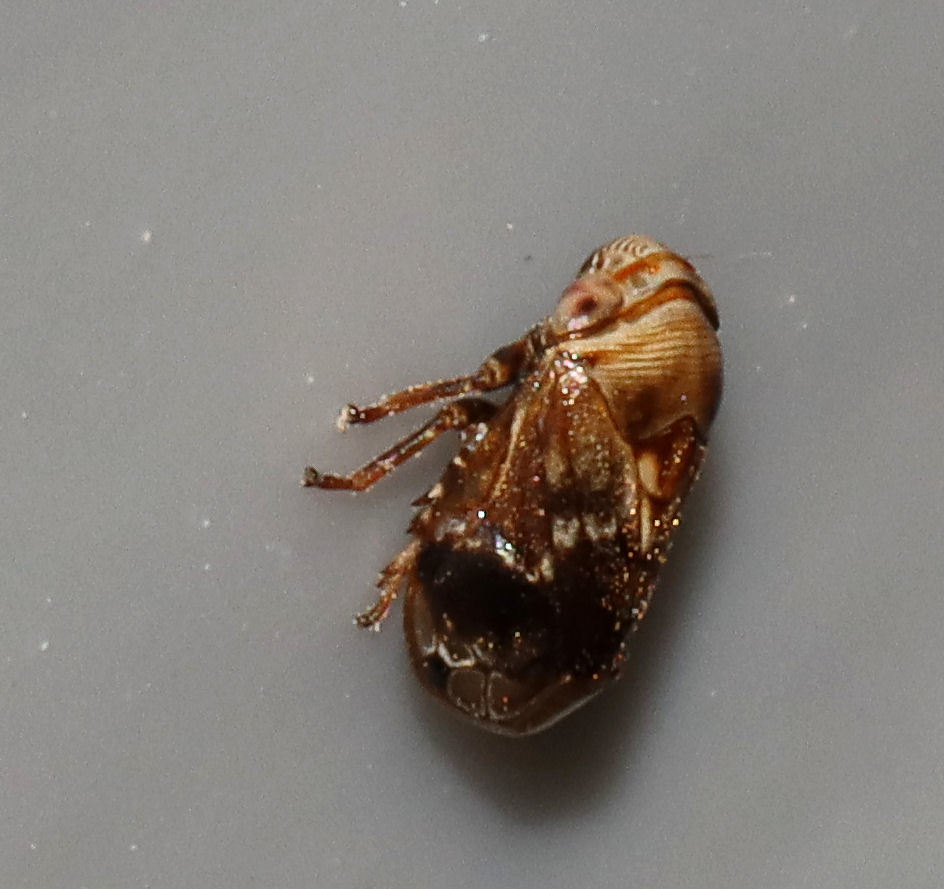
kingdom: Animalia
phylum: Arthropoda
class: Insecta
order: Hemiptera
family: Clastopteridae
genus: Clastoptera
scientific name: Clastoptera obtusa
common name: Alder spittlebug
